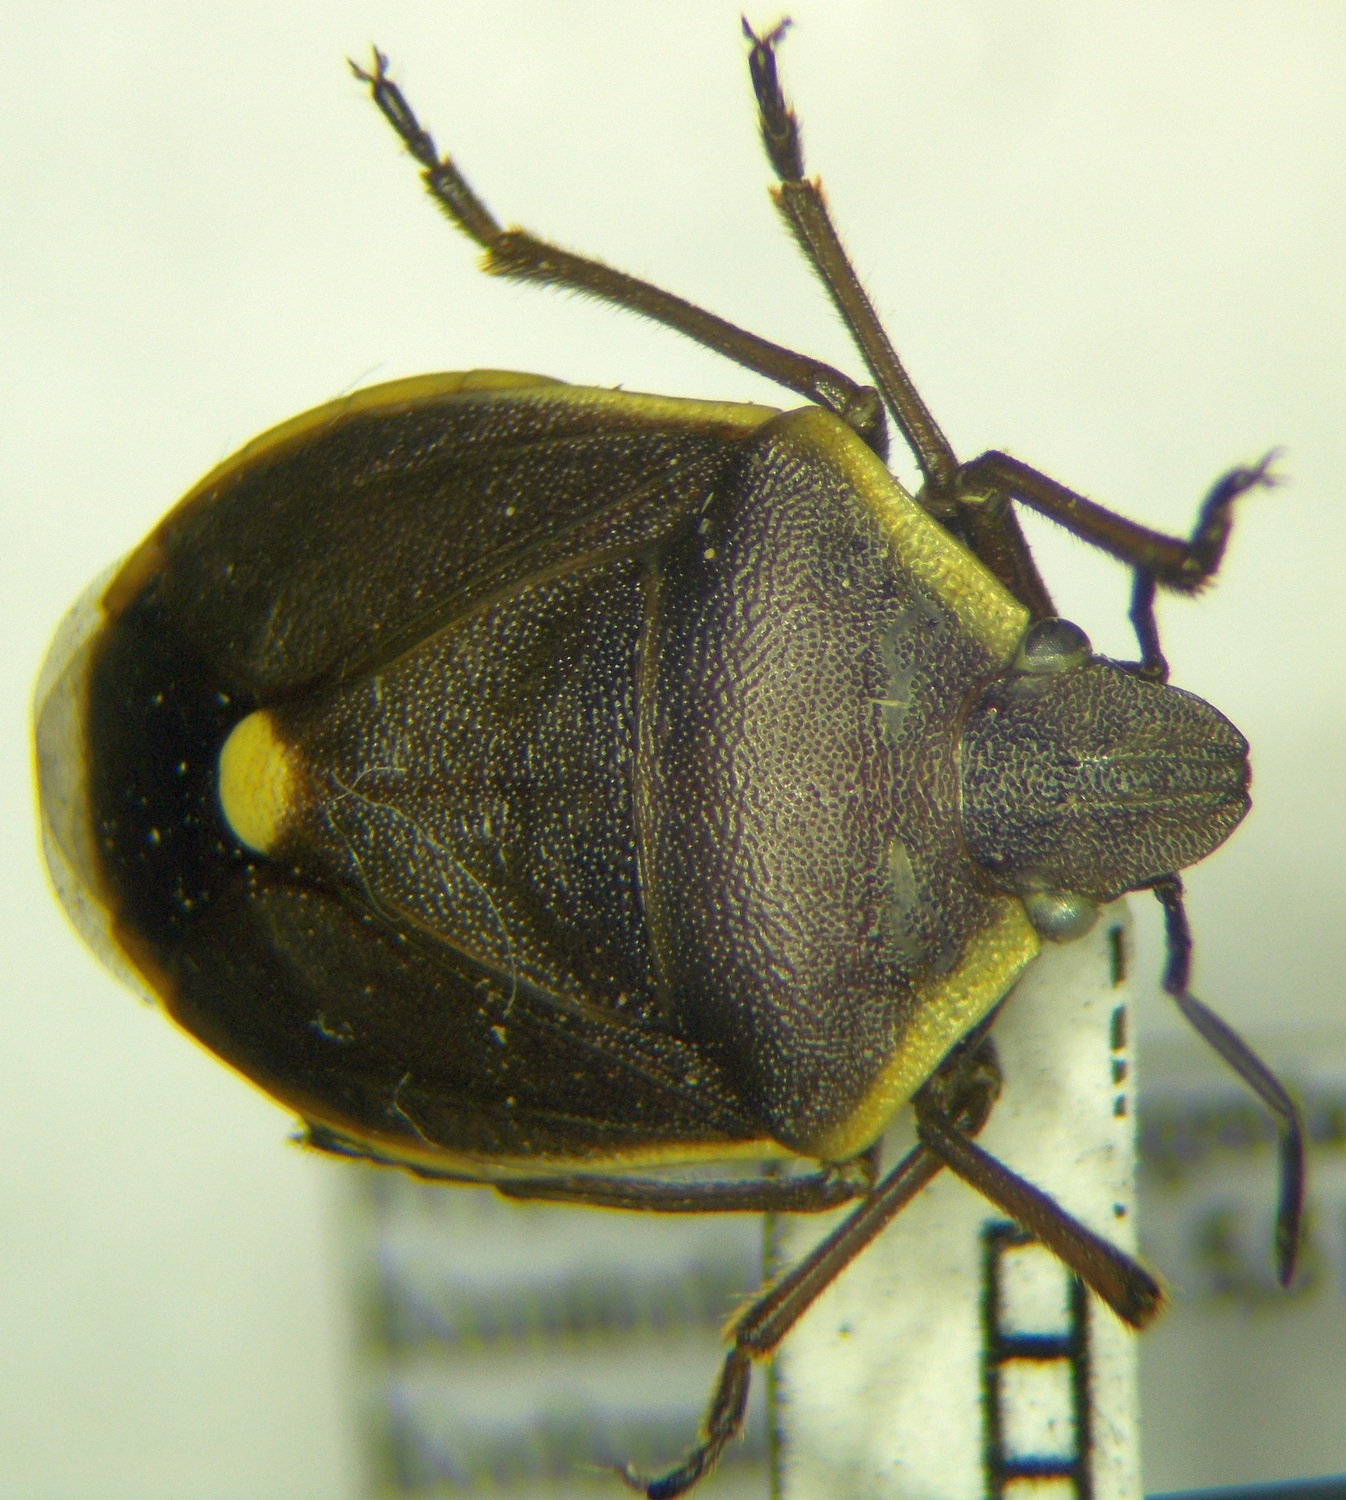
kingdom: Animalia
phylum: Arthropoda
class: Insecta
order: Hemiptera
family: Pentatomidae
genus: Chlorochroa
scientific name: Chlorochroa pinicola
